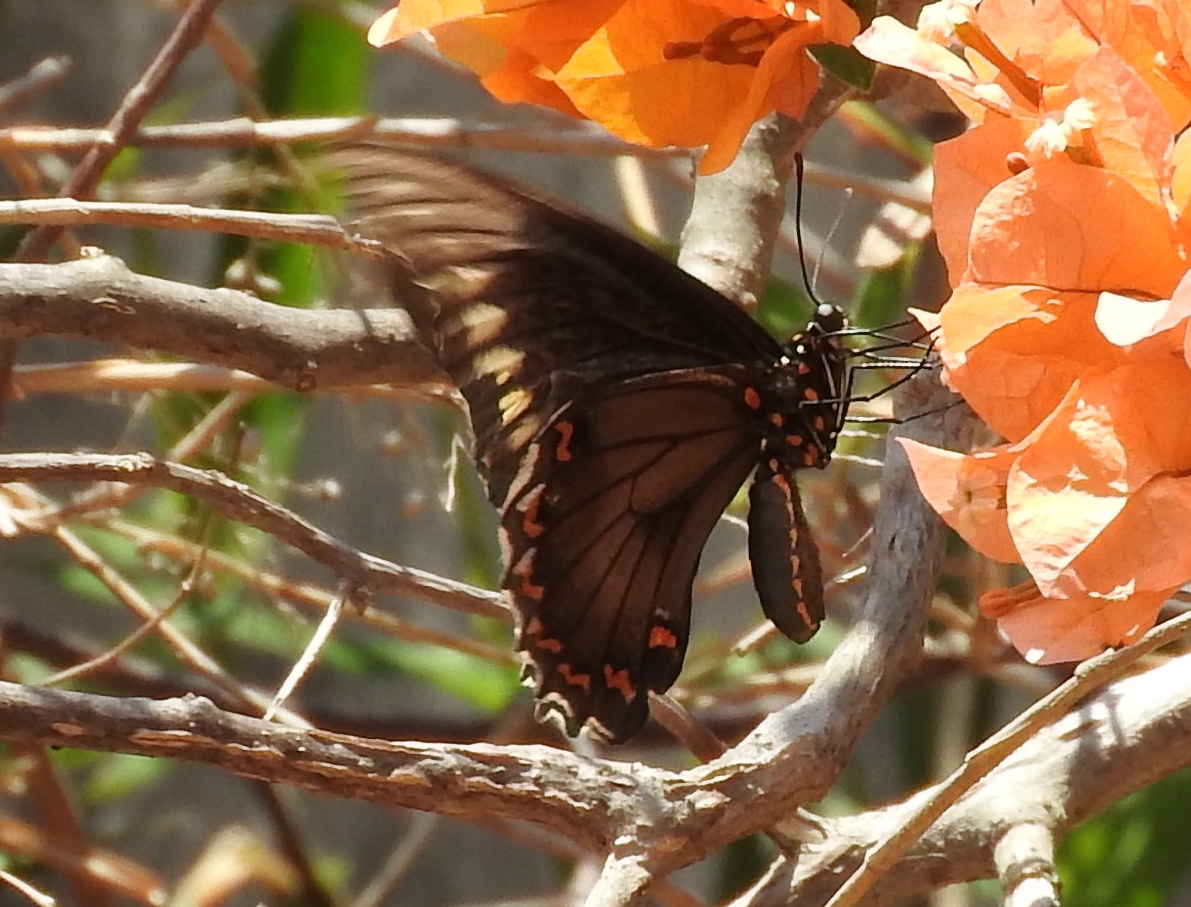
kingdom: Animalia
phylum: Arthropoda
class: Insecta
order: Lepidoptera
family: Papilionidae
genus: Battus
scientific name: Battus polydamas
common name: Polydamas swallowtail
